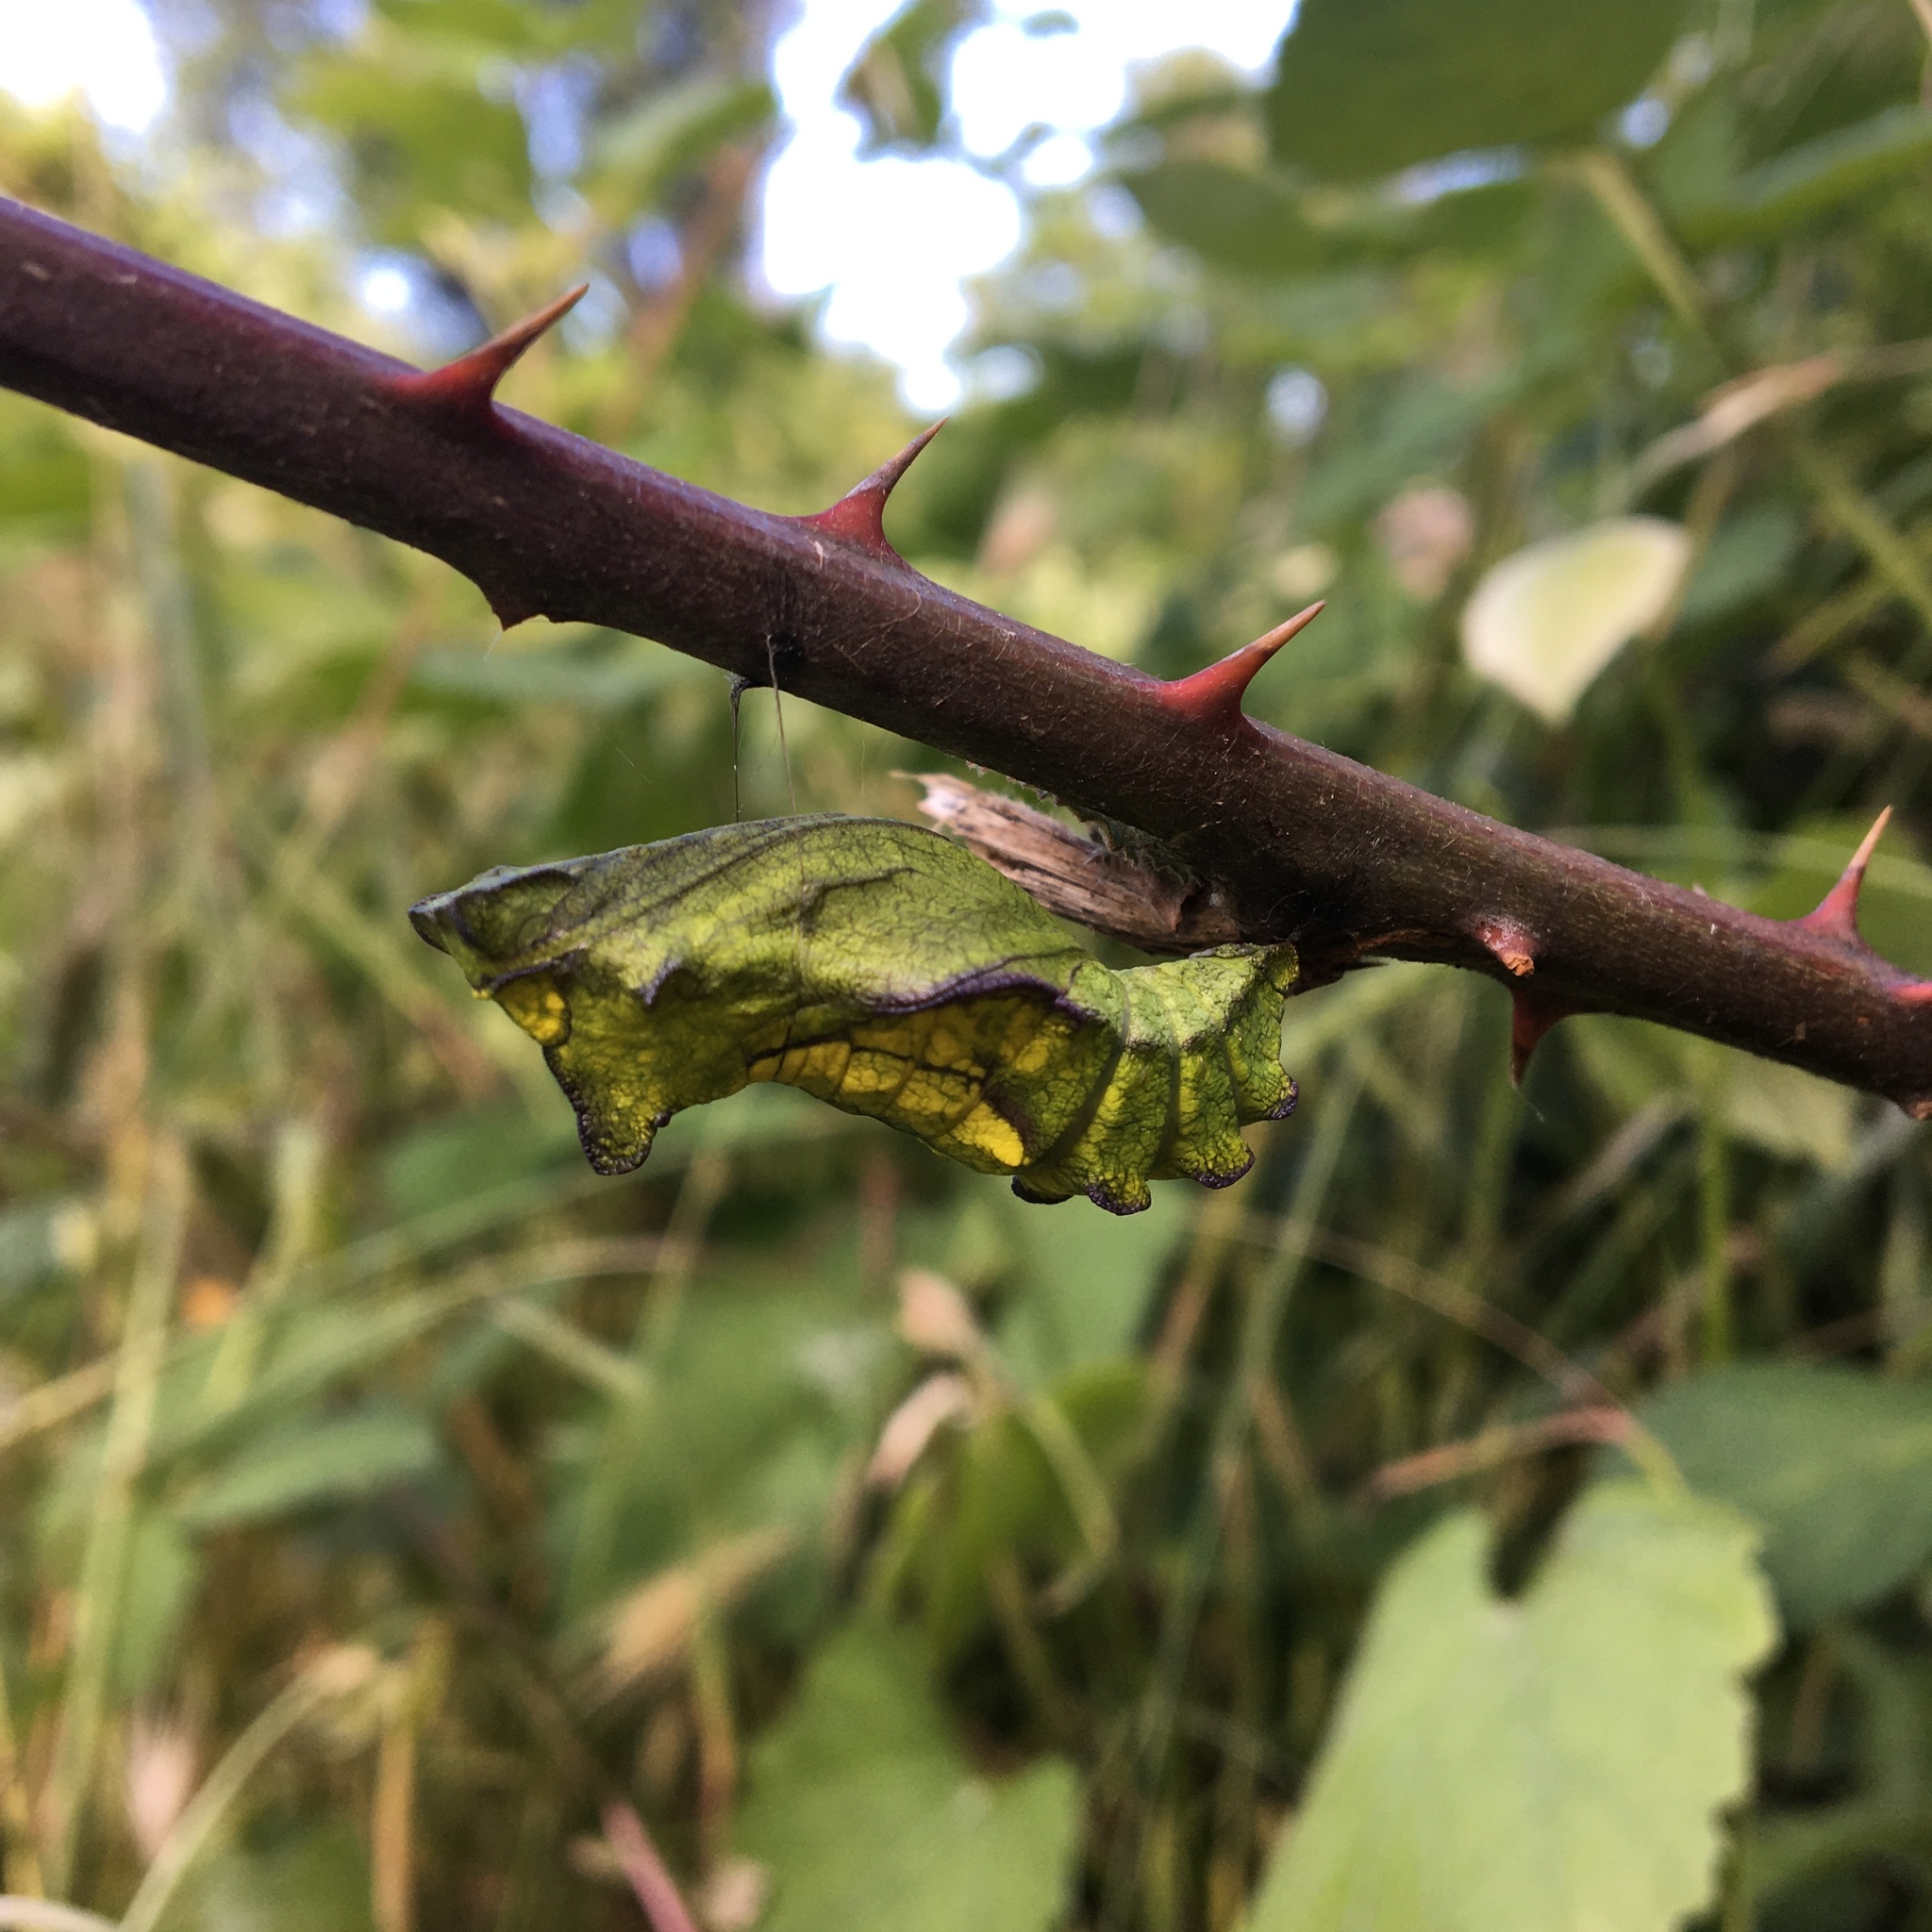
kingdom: Animalia
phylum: Arthropoda
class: Insecta
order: Lepidoptera
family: Papilionidae
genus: Battus
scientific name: Battus philenor
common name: Pipevine swallowtail
